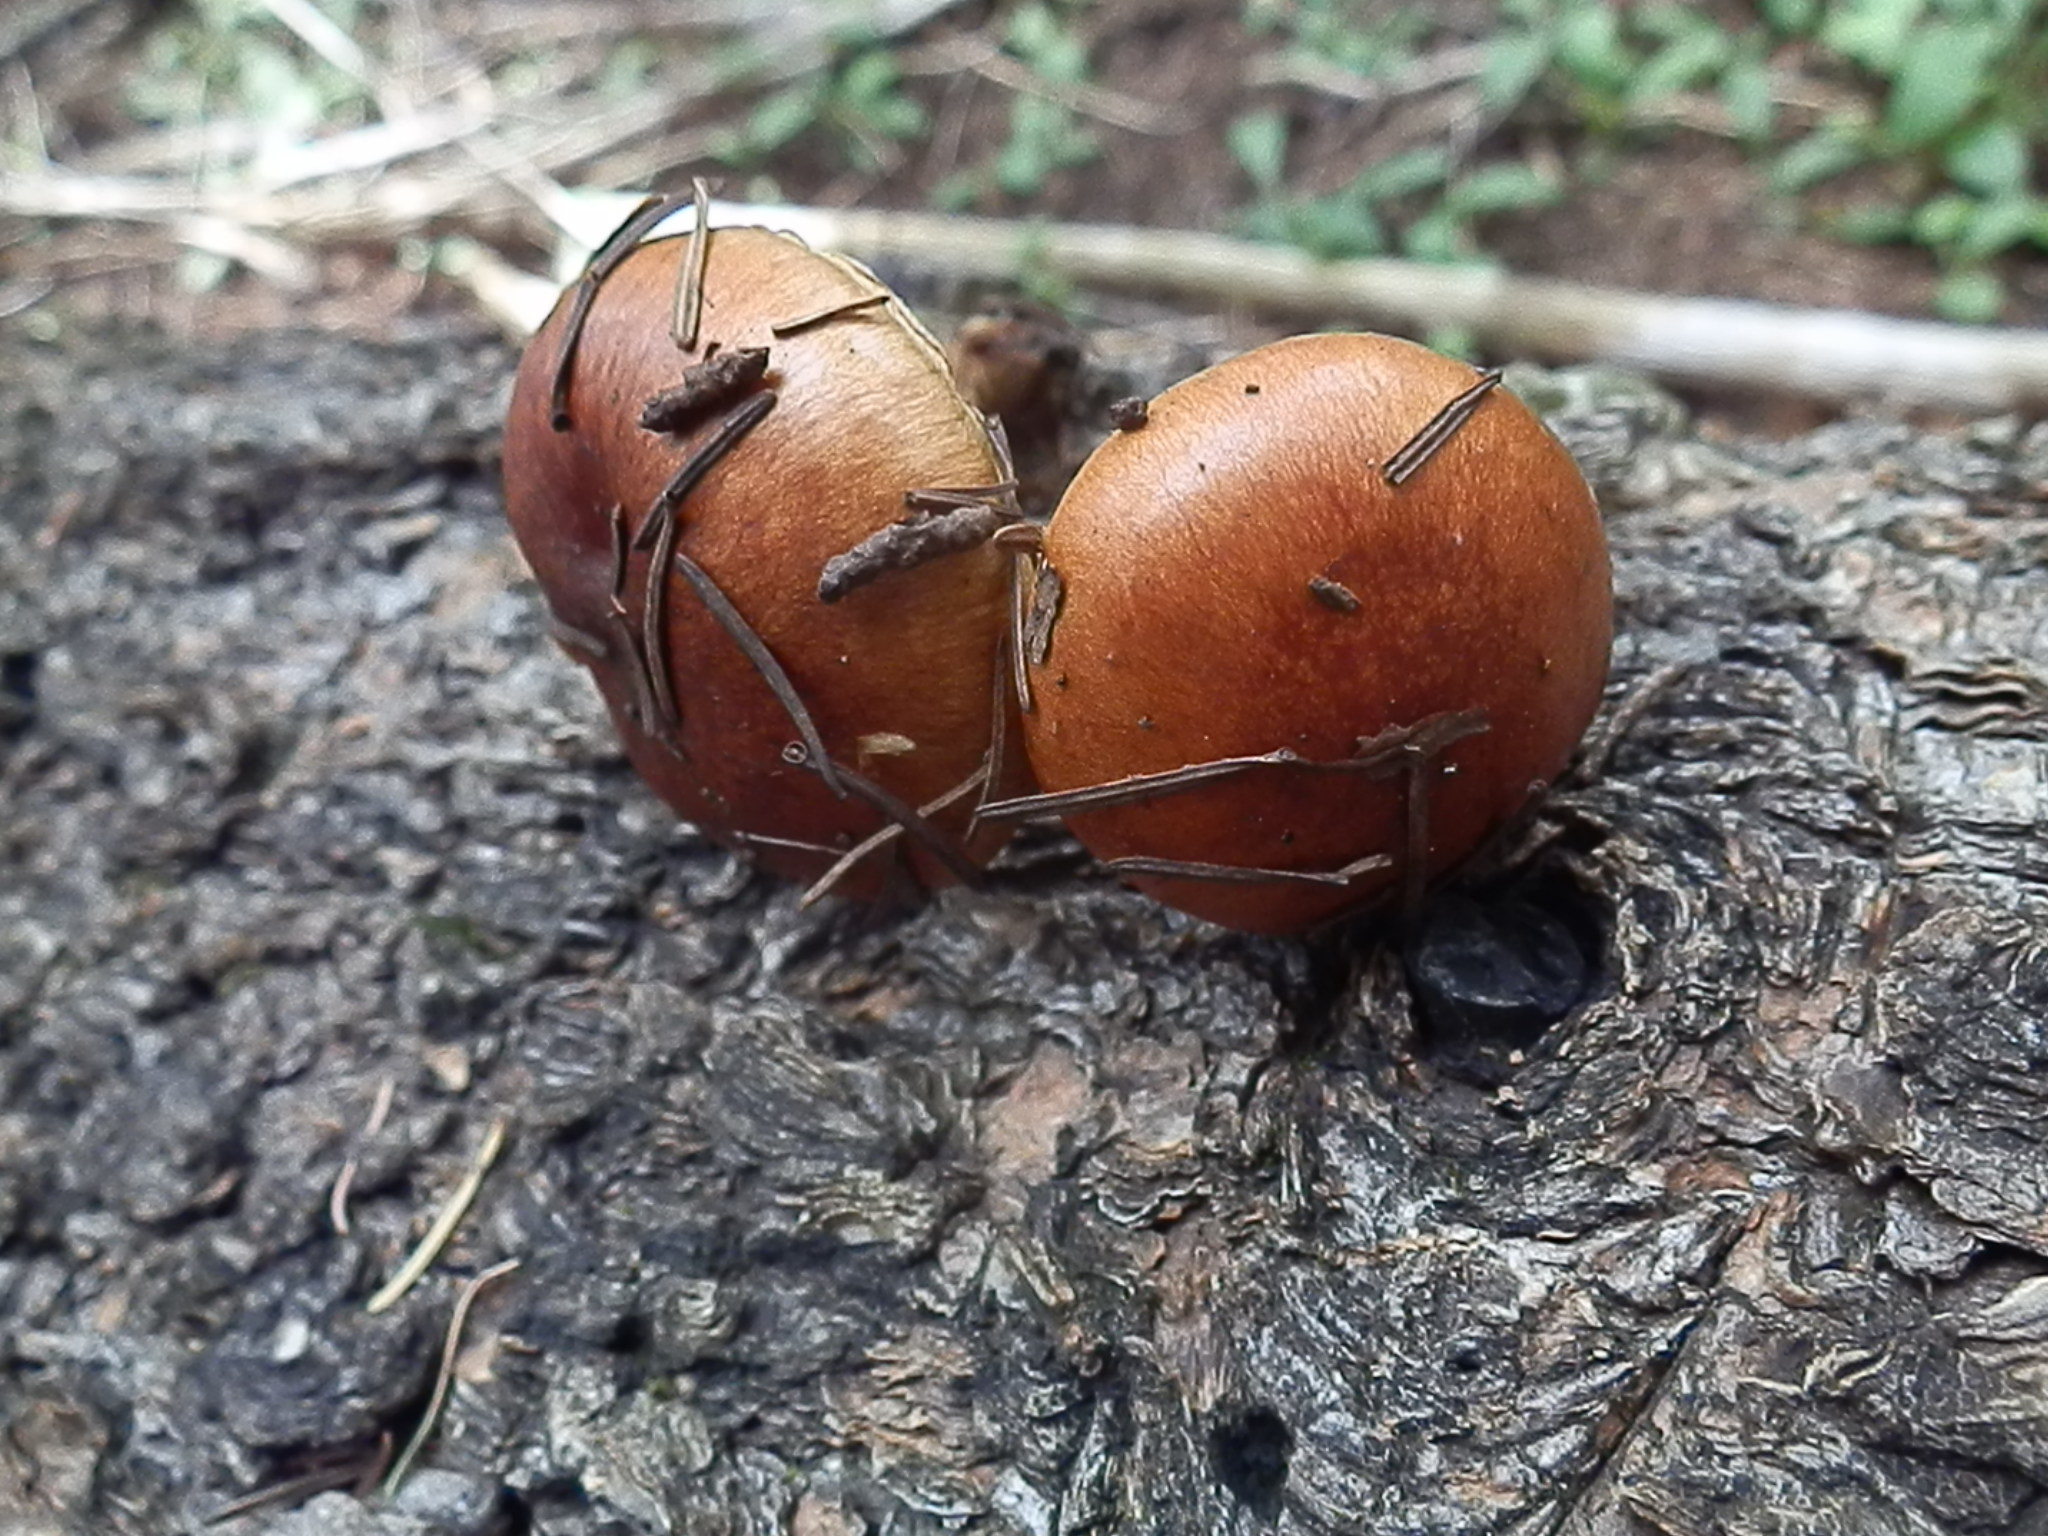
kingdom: Fungi
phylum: Basidiomycota
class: Agaricomycetes
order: Agaricales
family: Strophariaceae
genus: Pholiota
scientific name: Pholiota rufodisca
